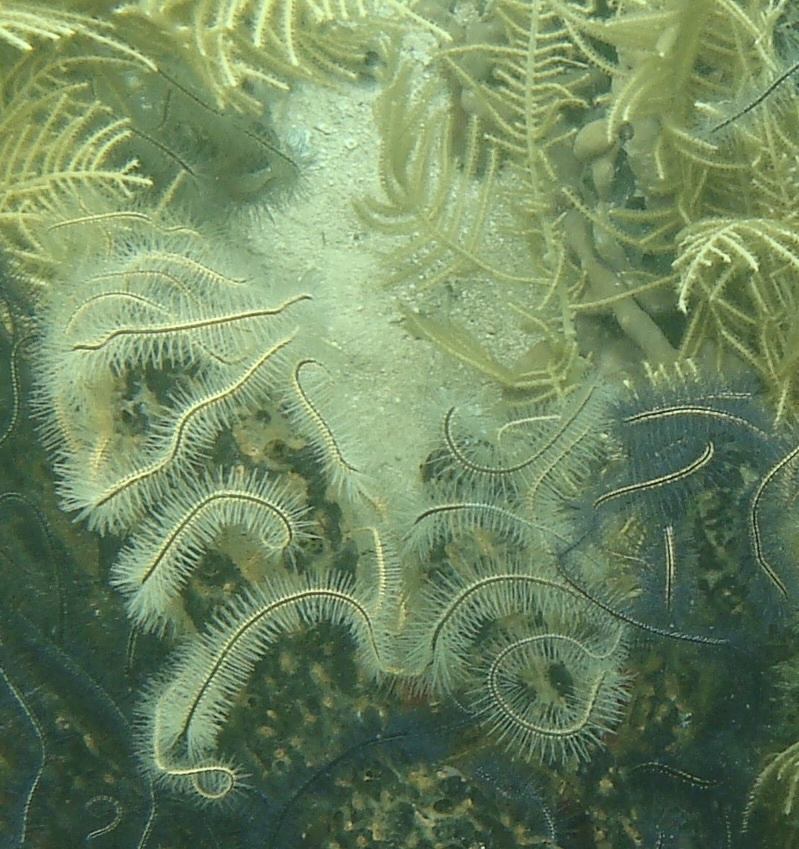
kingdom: Animalia
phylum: Echinodermata
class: Ophiuroidea
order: Amphilepidida
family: Ophiotrichidae
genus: Ophiothrix
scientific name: Ophiothrix suensonii
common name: Sponge brittle star
